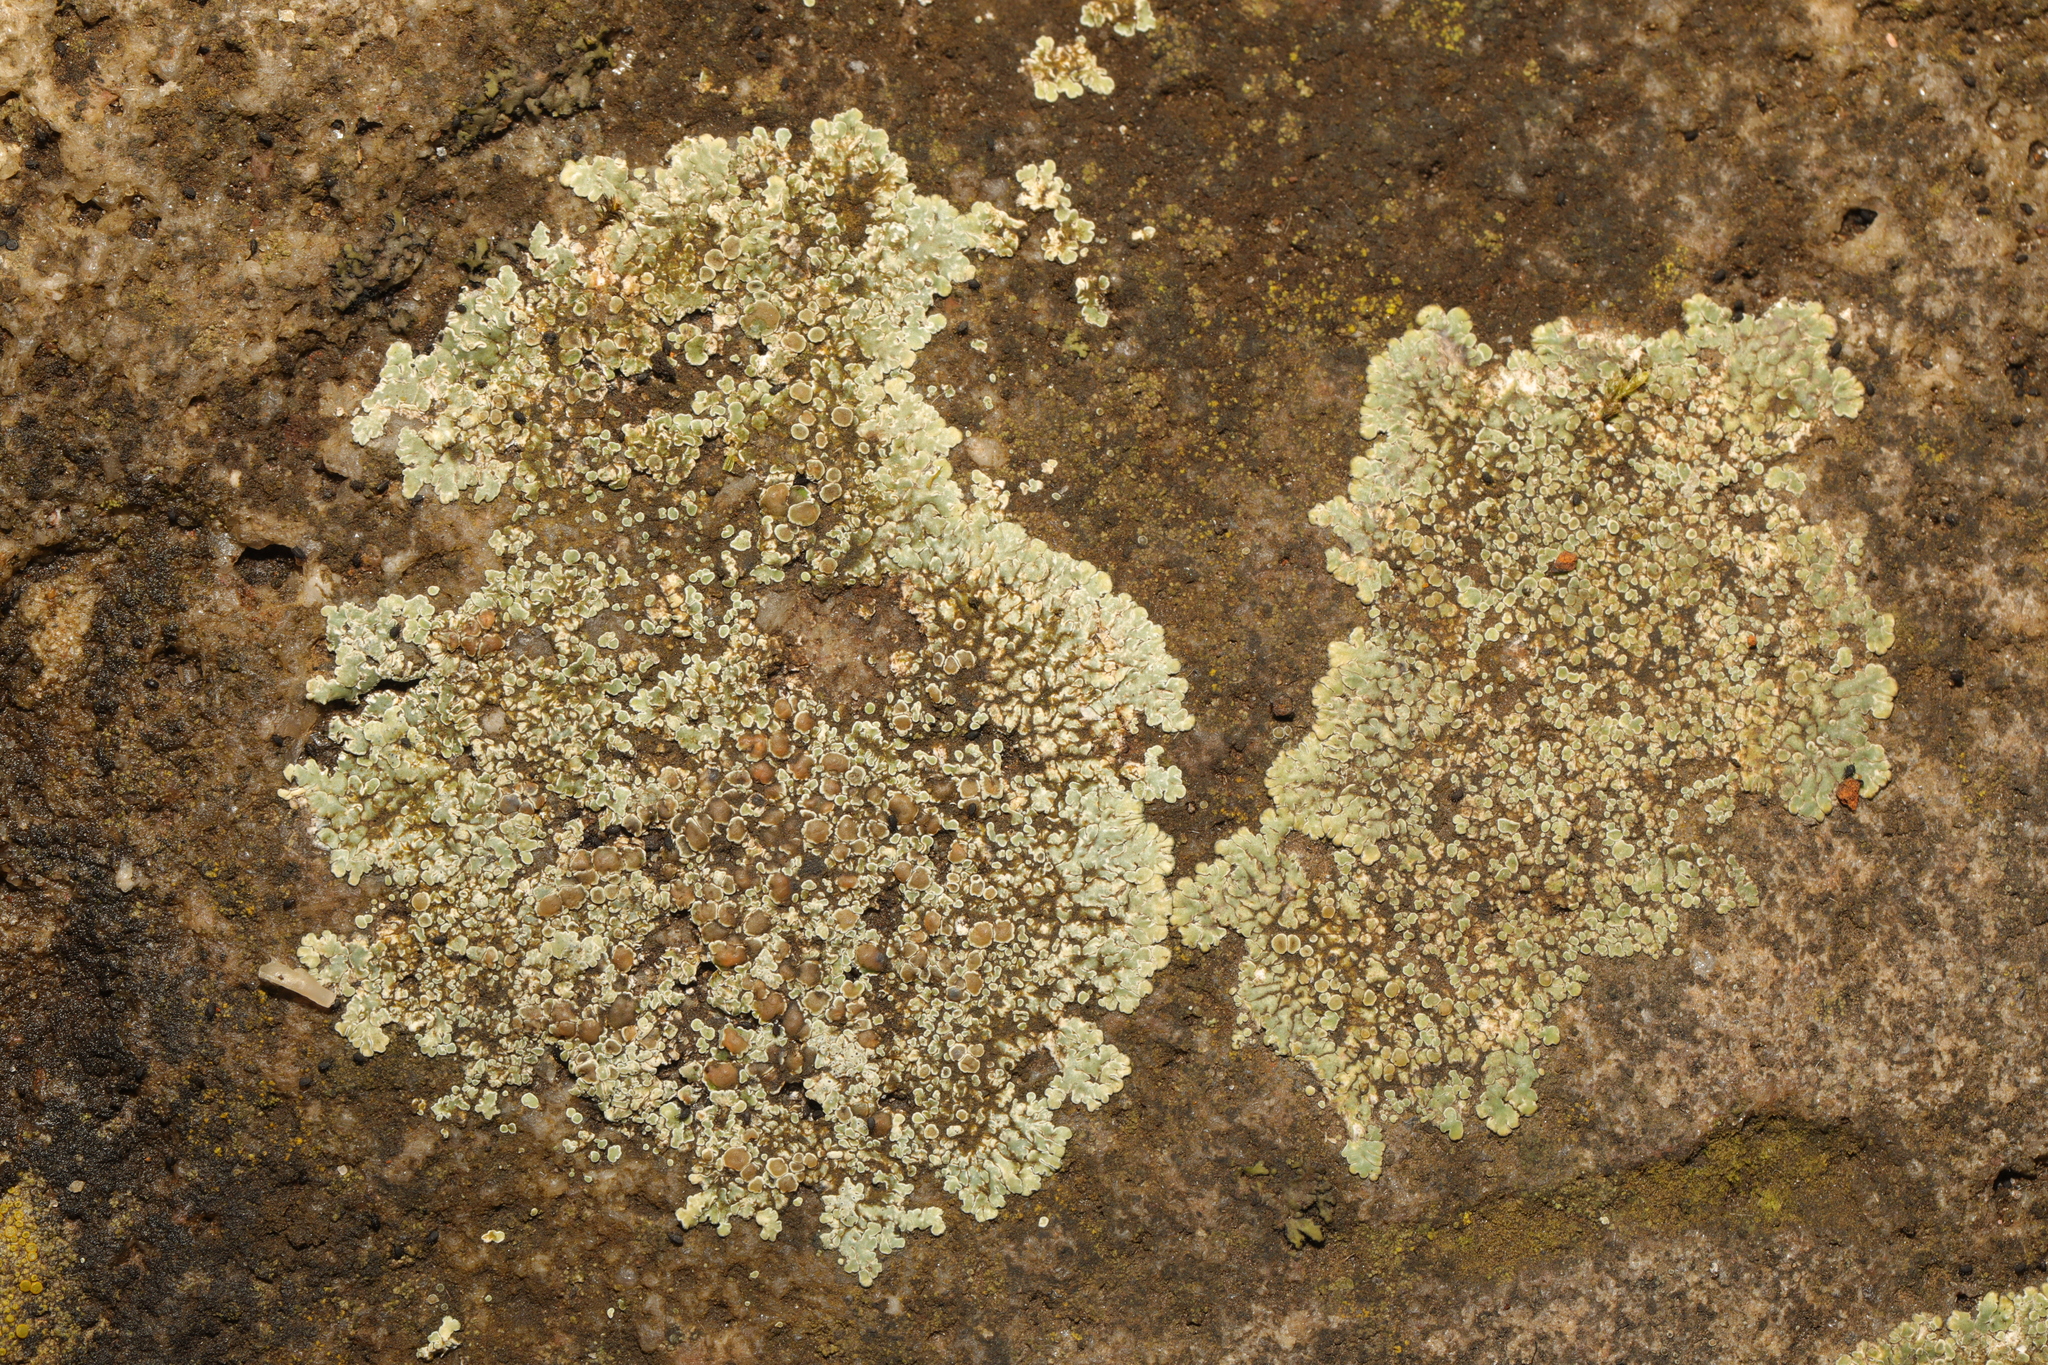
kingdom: Fungi
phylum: Ascomycota
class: Lecanoromycetes
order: Lecanorales
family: Lecanoraceae
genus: Protoparmeliopsis
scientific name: Protoparmeliopsis muralis
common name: Stonewall rim lichen
